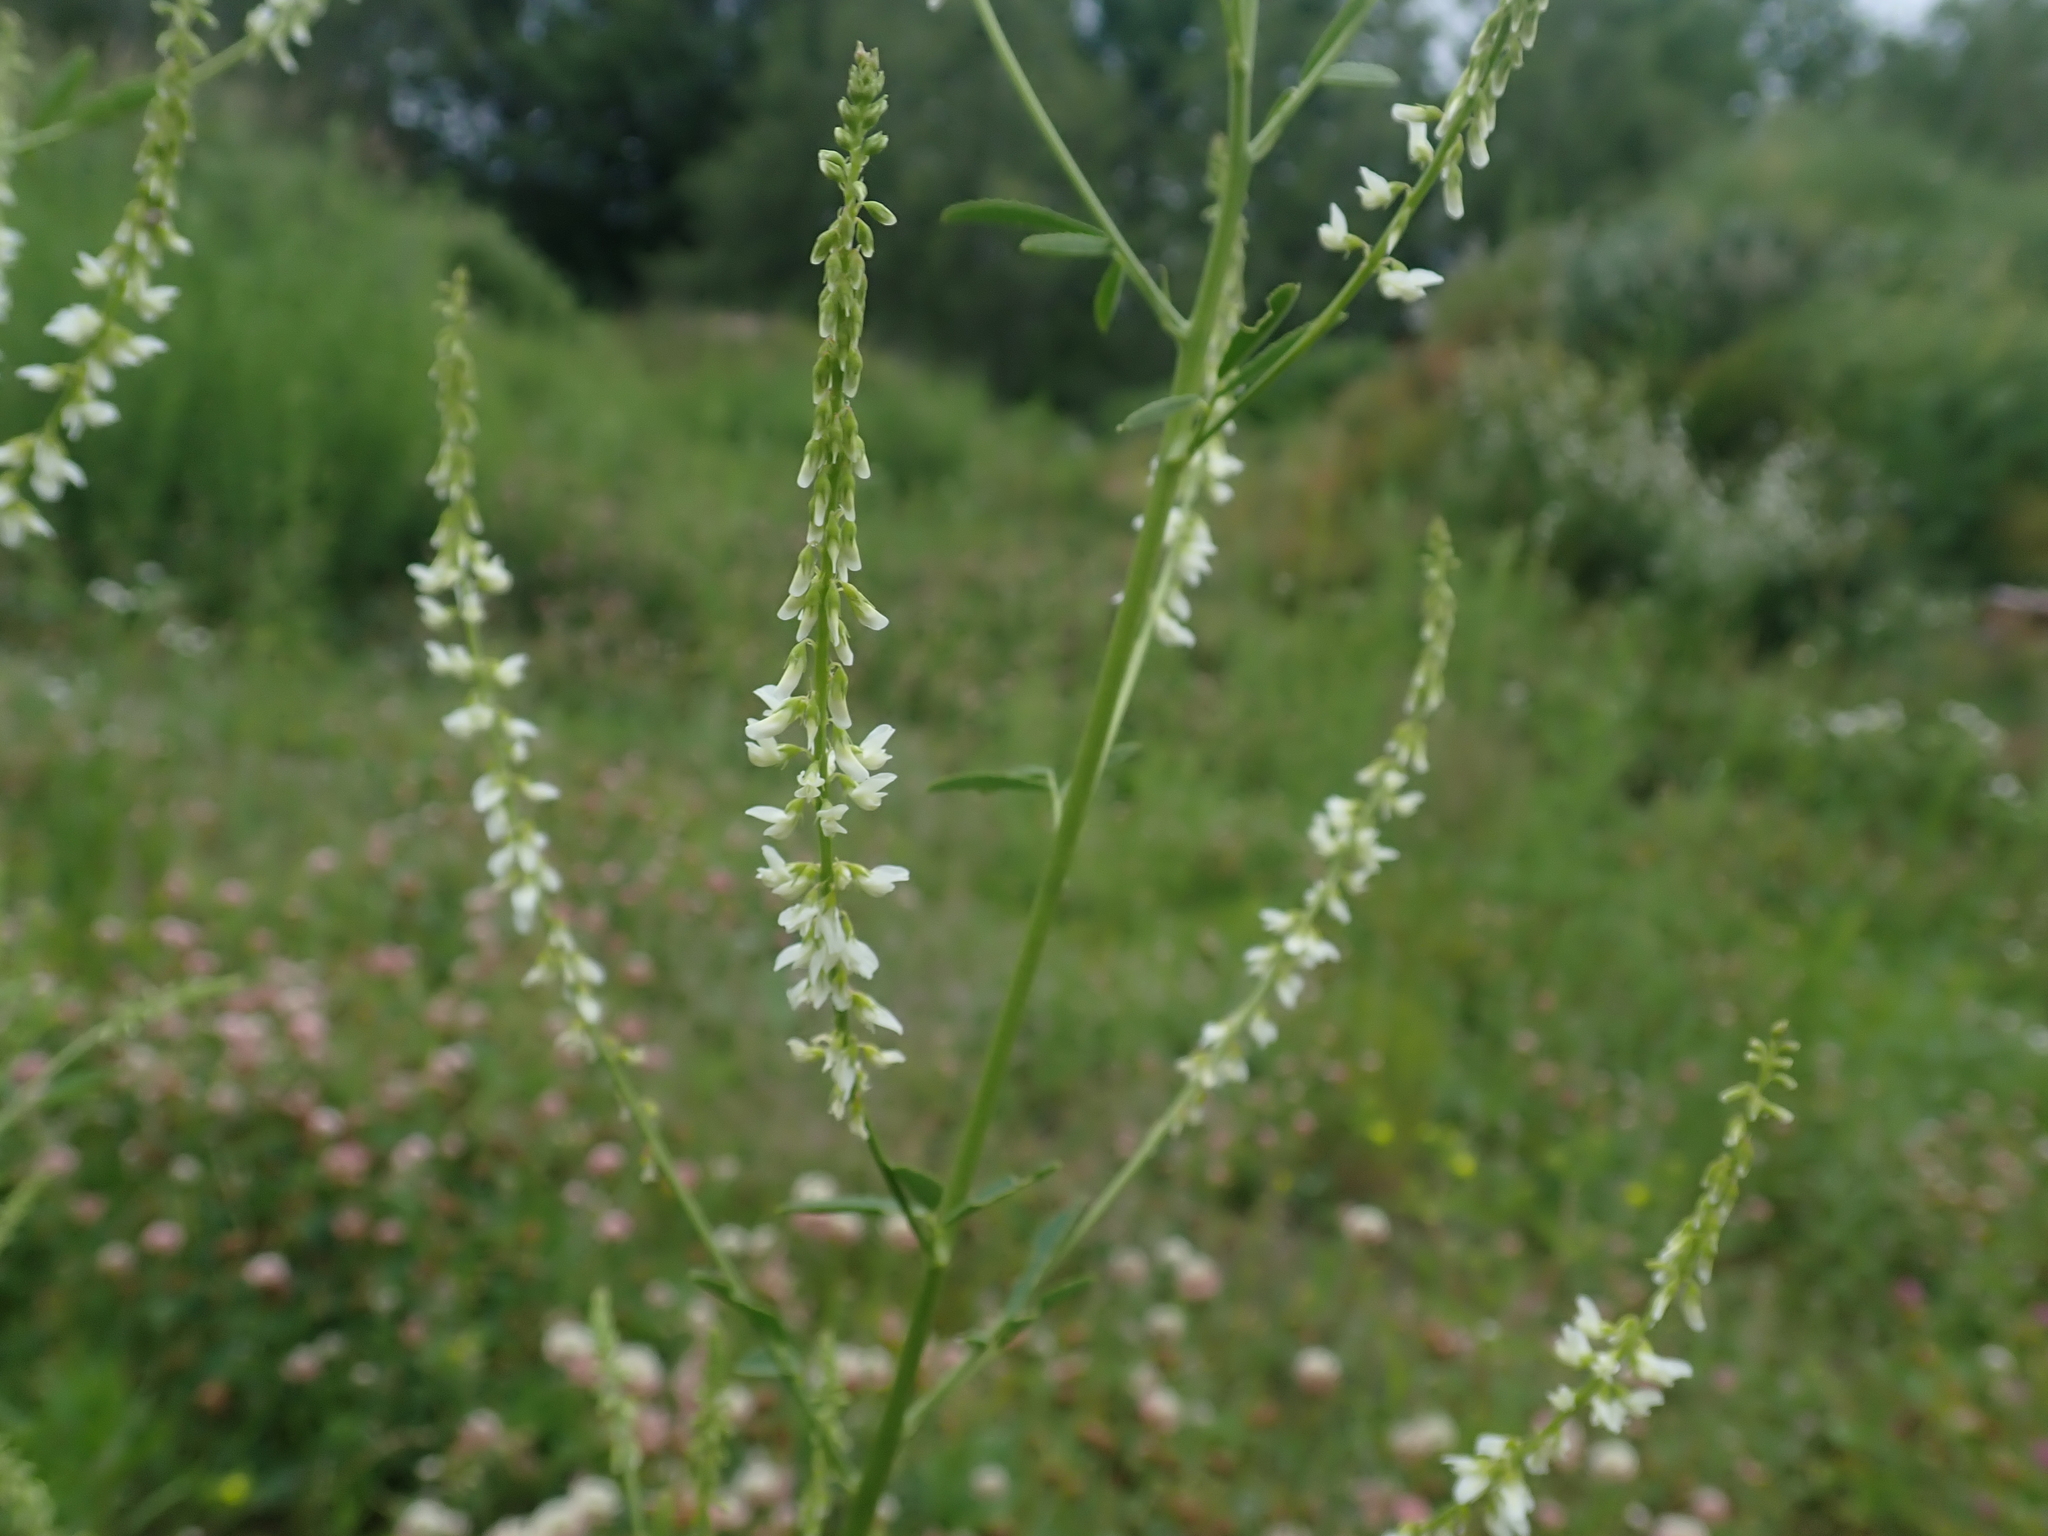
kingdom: Plantae
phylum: Tracheophyta
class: Magnoliopsida
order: Fabales
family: Fabaceae
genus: Melilotus
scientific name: Melilotus albus
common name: White melilot
